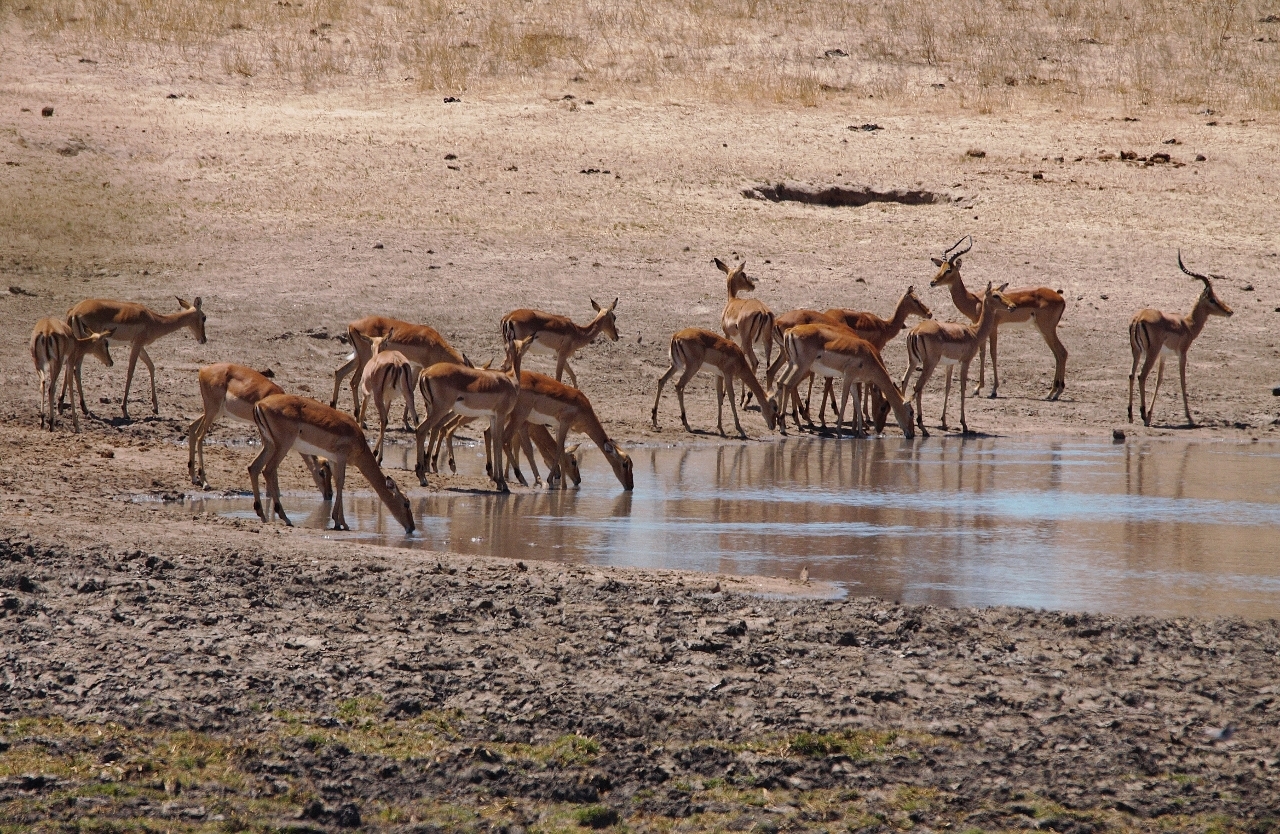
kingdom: Animalia
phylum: Chordata
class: Mammalia
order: Artiodactyla
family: Bovidae
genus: Aepyceros
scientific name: Aepyceros melampus
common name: Impala
